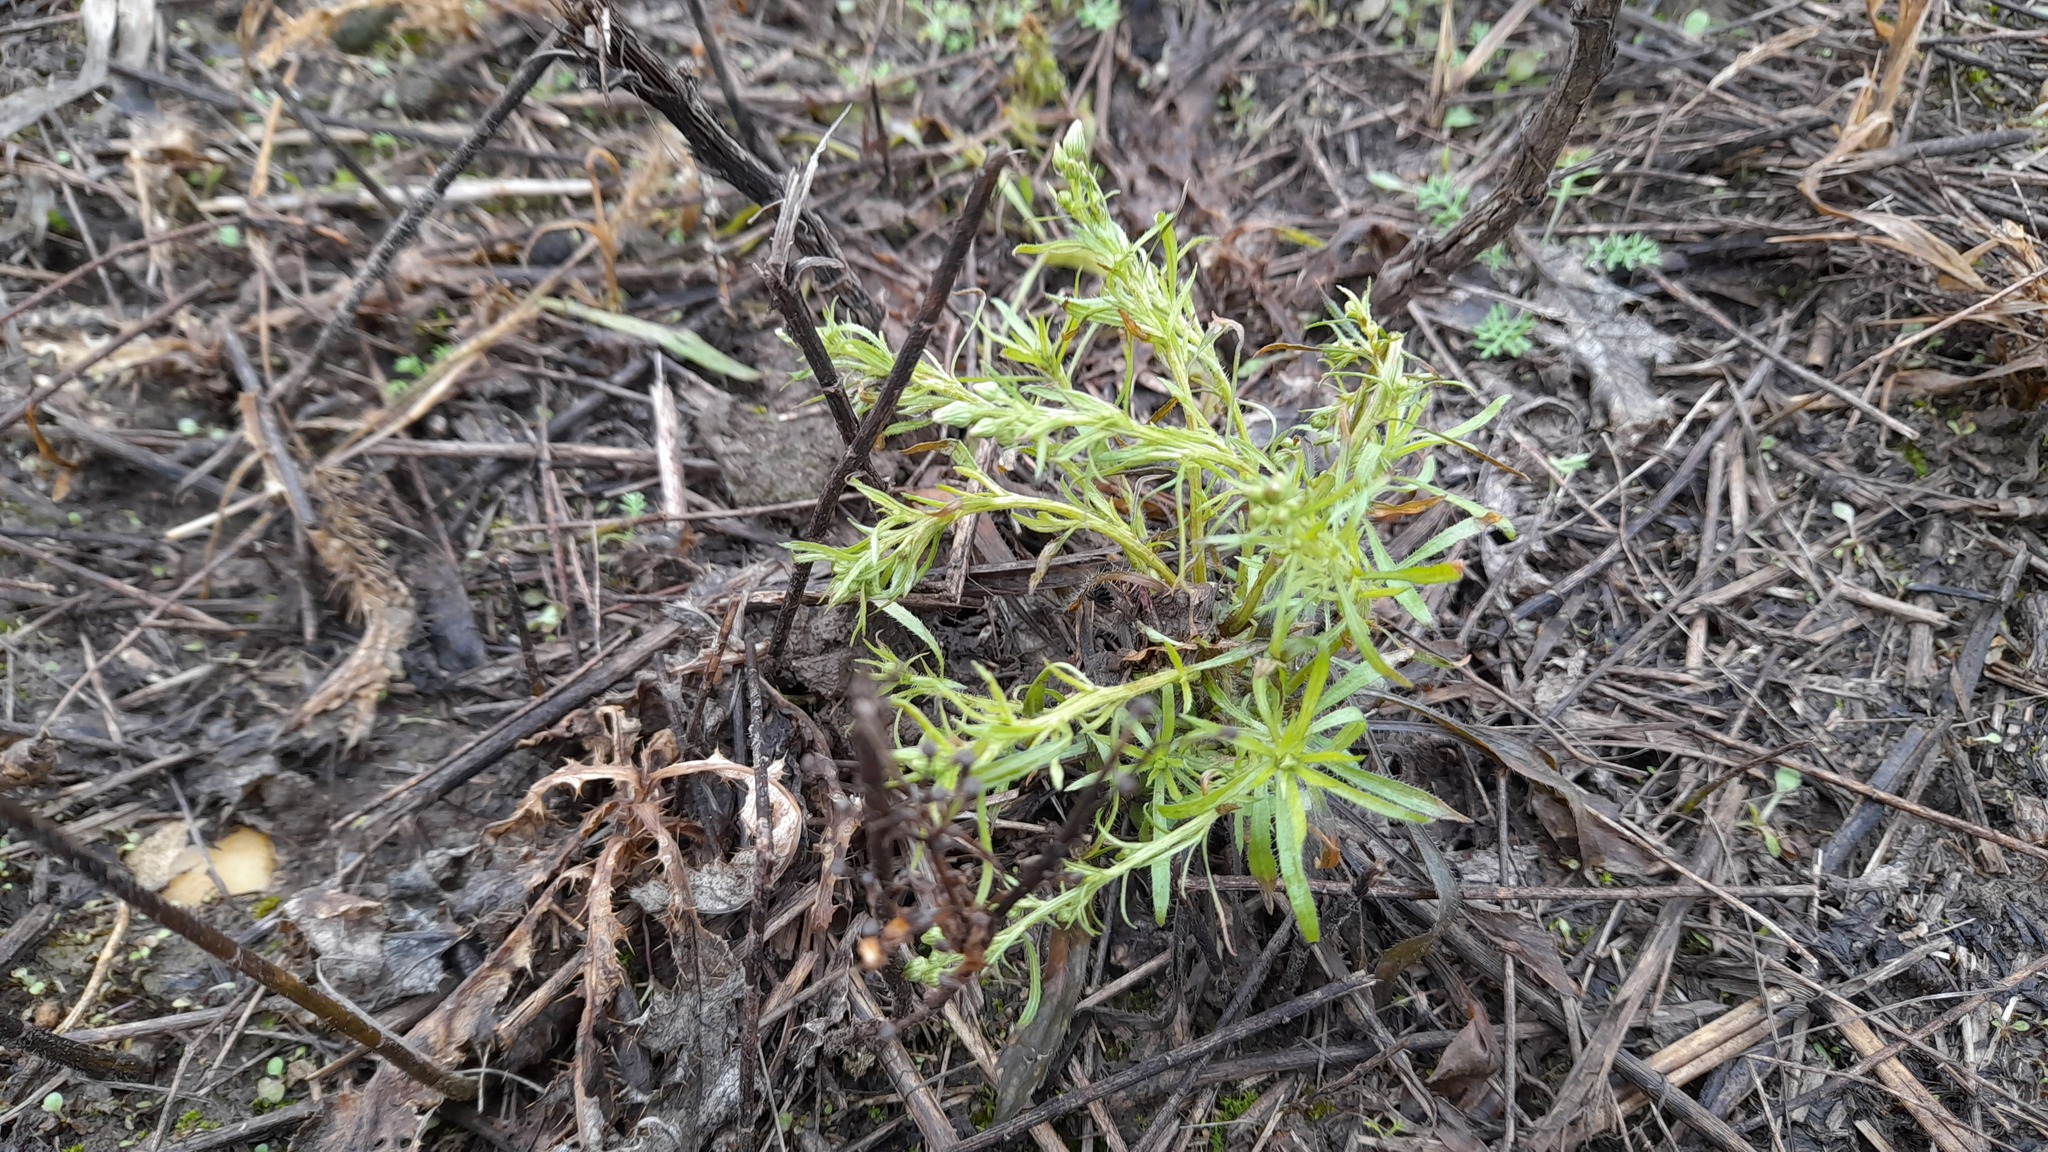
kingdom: Plantae
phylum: Tracheophyta
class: Magnoliopsida
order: Asterales
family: Asteraceae
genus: Erigeron
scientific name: Erigeron canadensis
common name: Canadian fleabane
